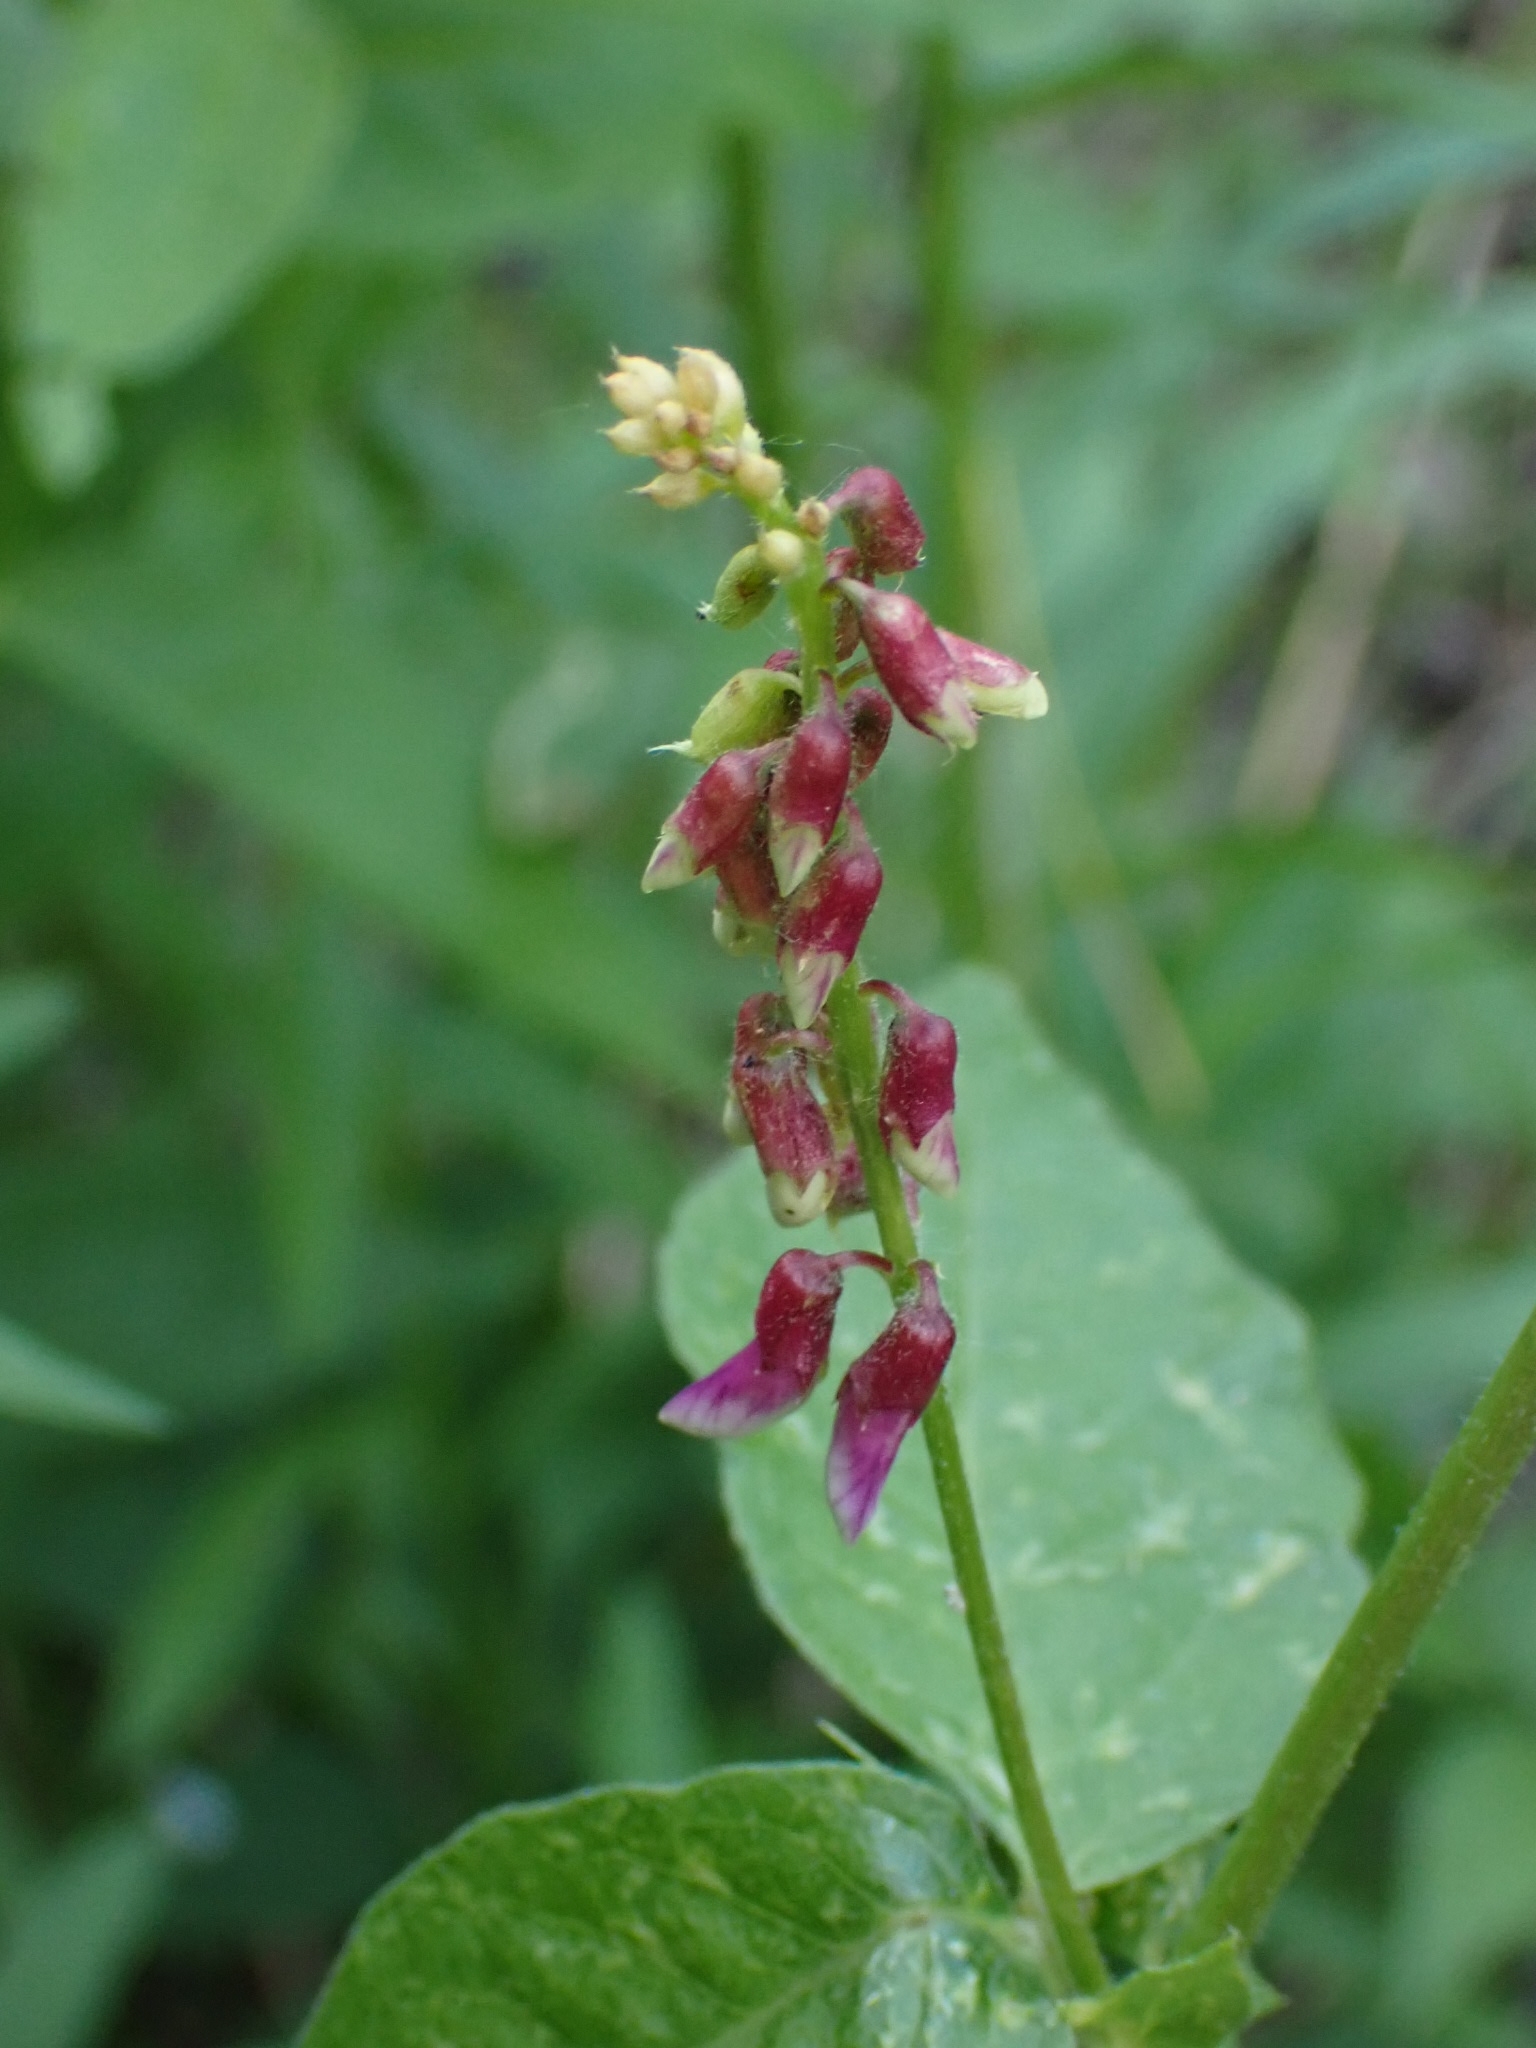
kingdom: Plantae
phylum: Tracheophyta
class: Magnoliopsida
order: Fabales
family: Fabaceae
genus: Vicia
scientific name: Vicia unijuga
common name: Two-leaf vetch
